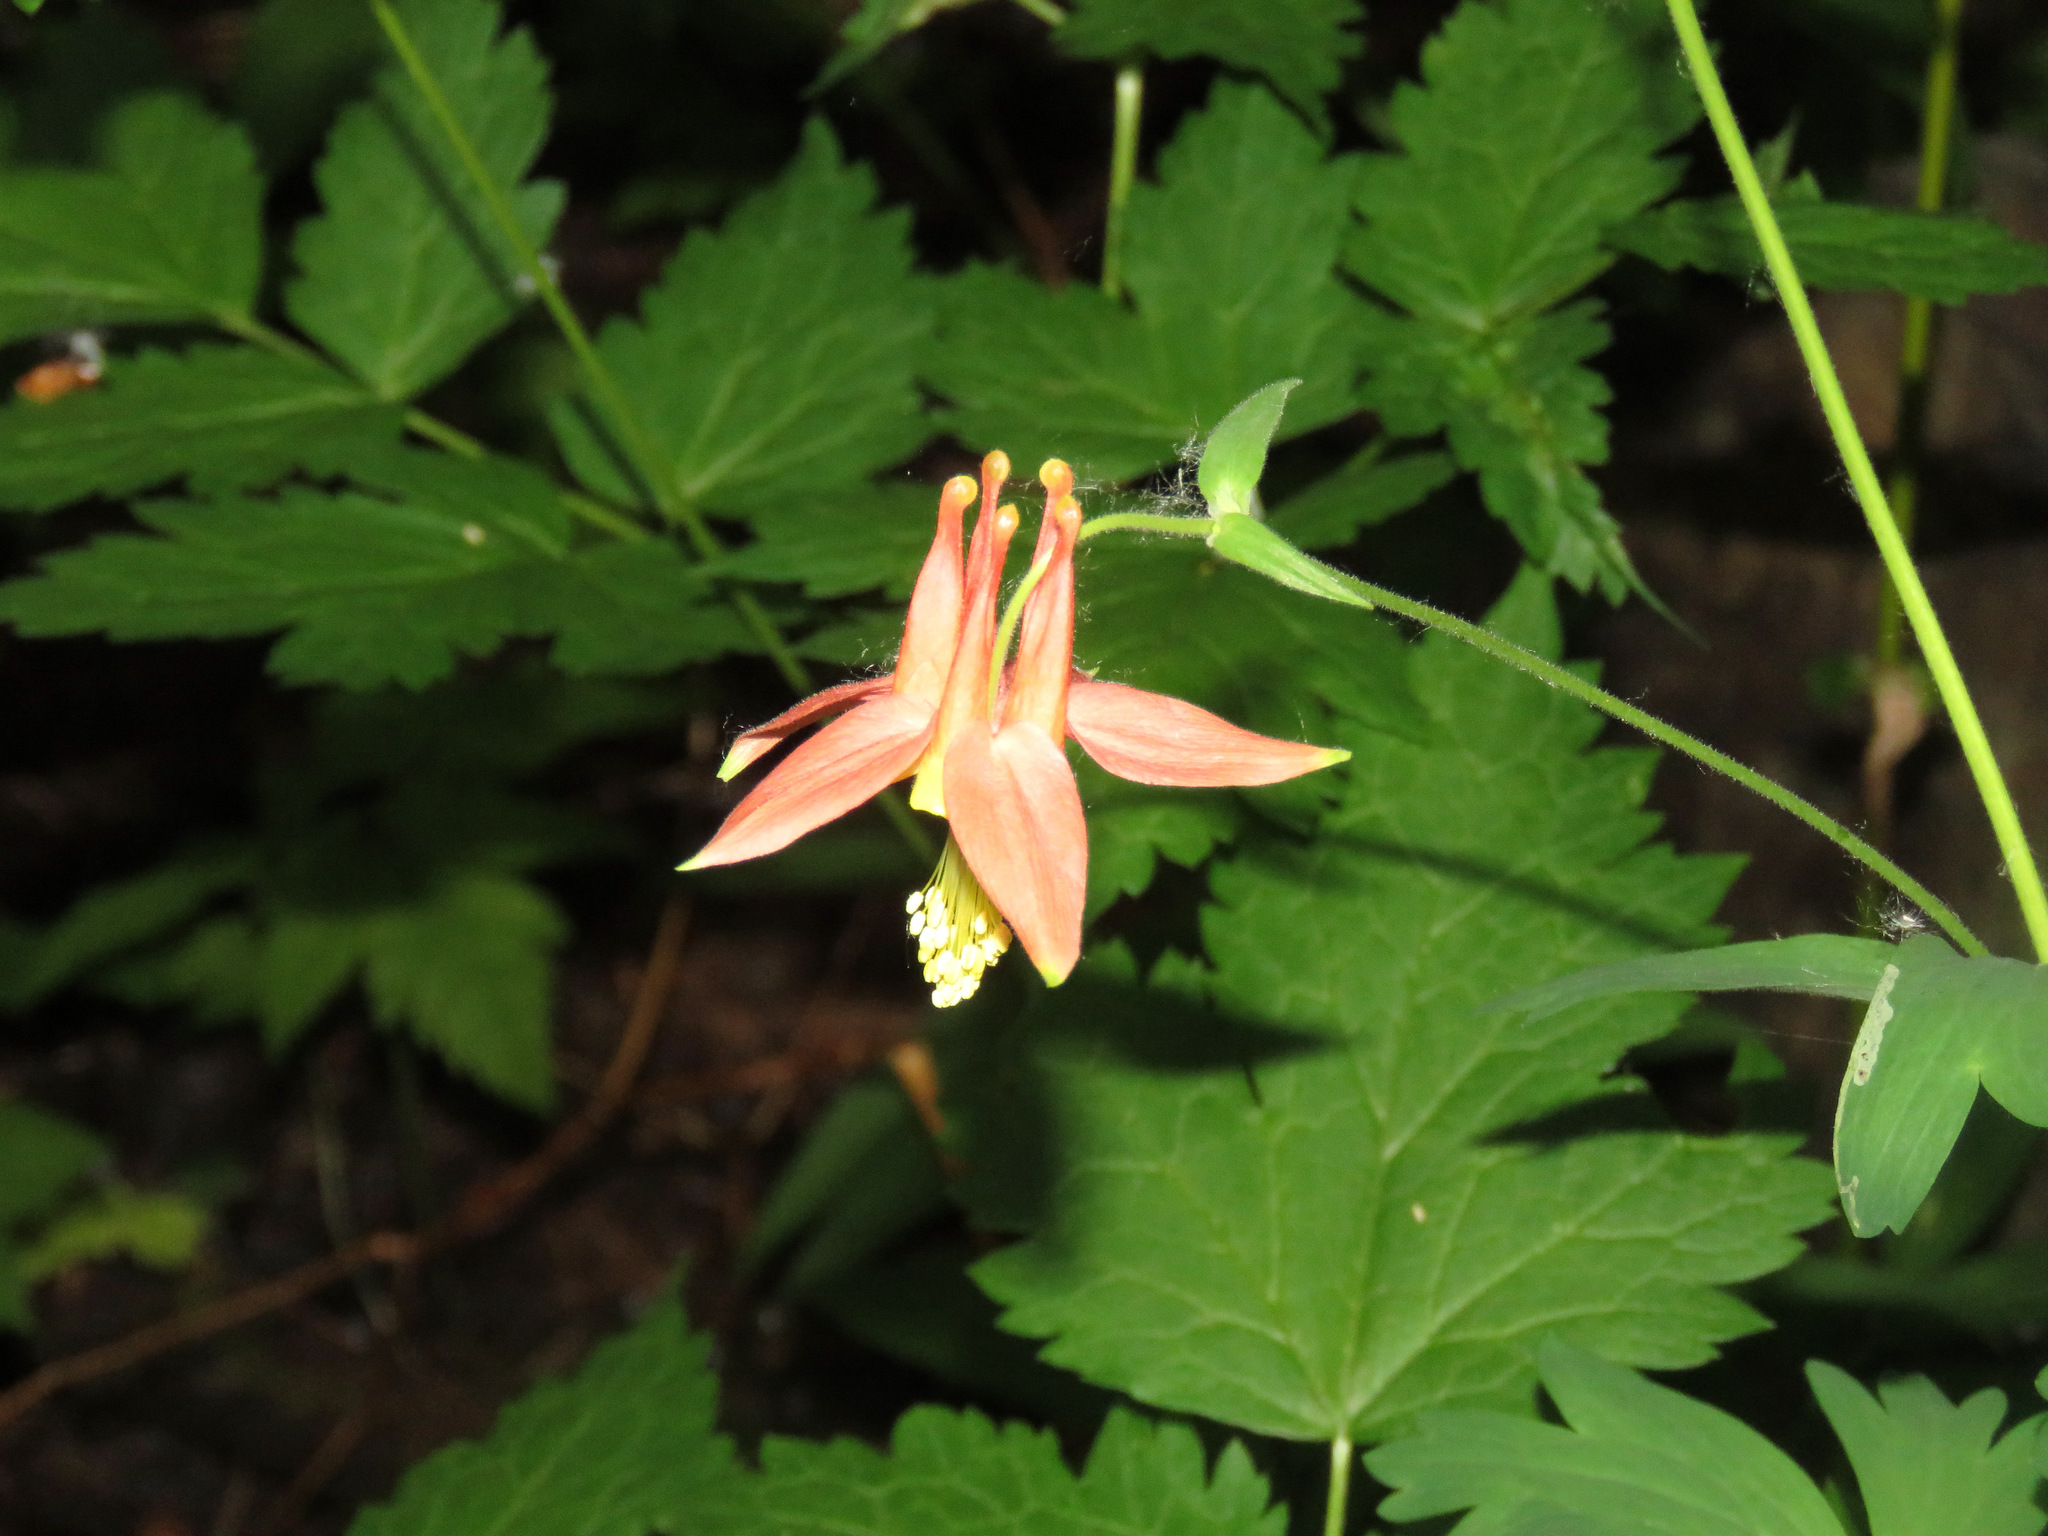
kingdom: Plantae
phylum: Tracheophyta
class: Magnoliopsida
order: Ranunculales
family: Ranunculaceae
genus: Aquilegia
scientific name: Aquilegia formosa
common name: Sitka columbine
